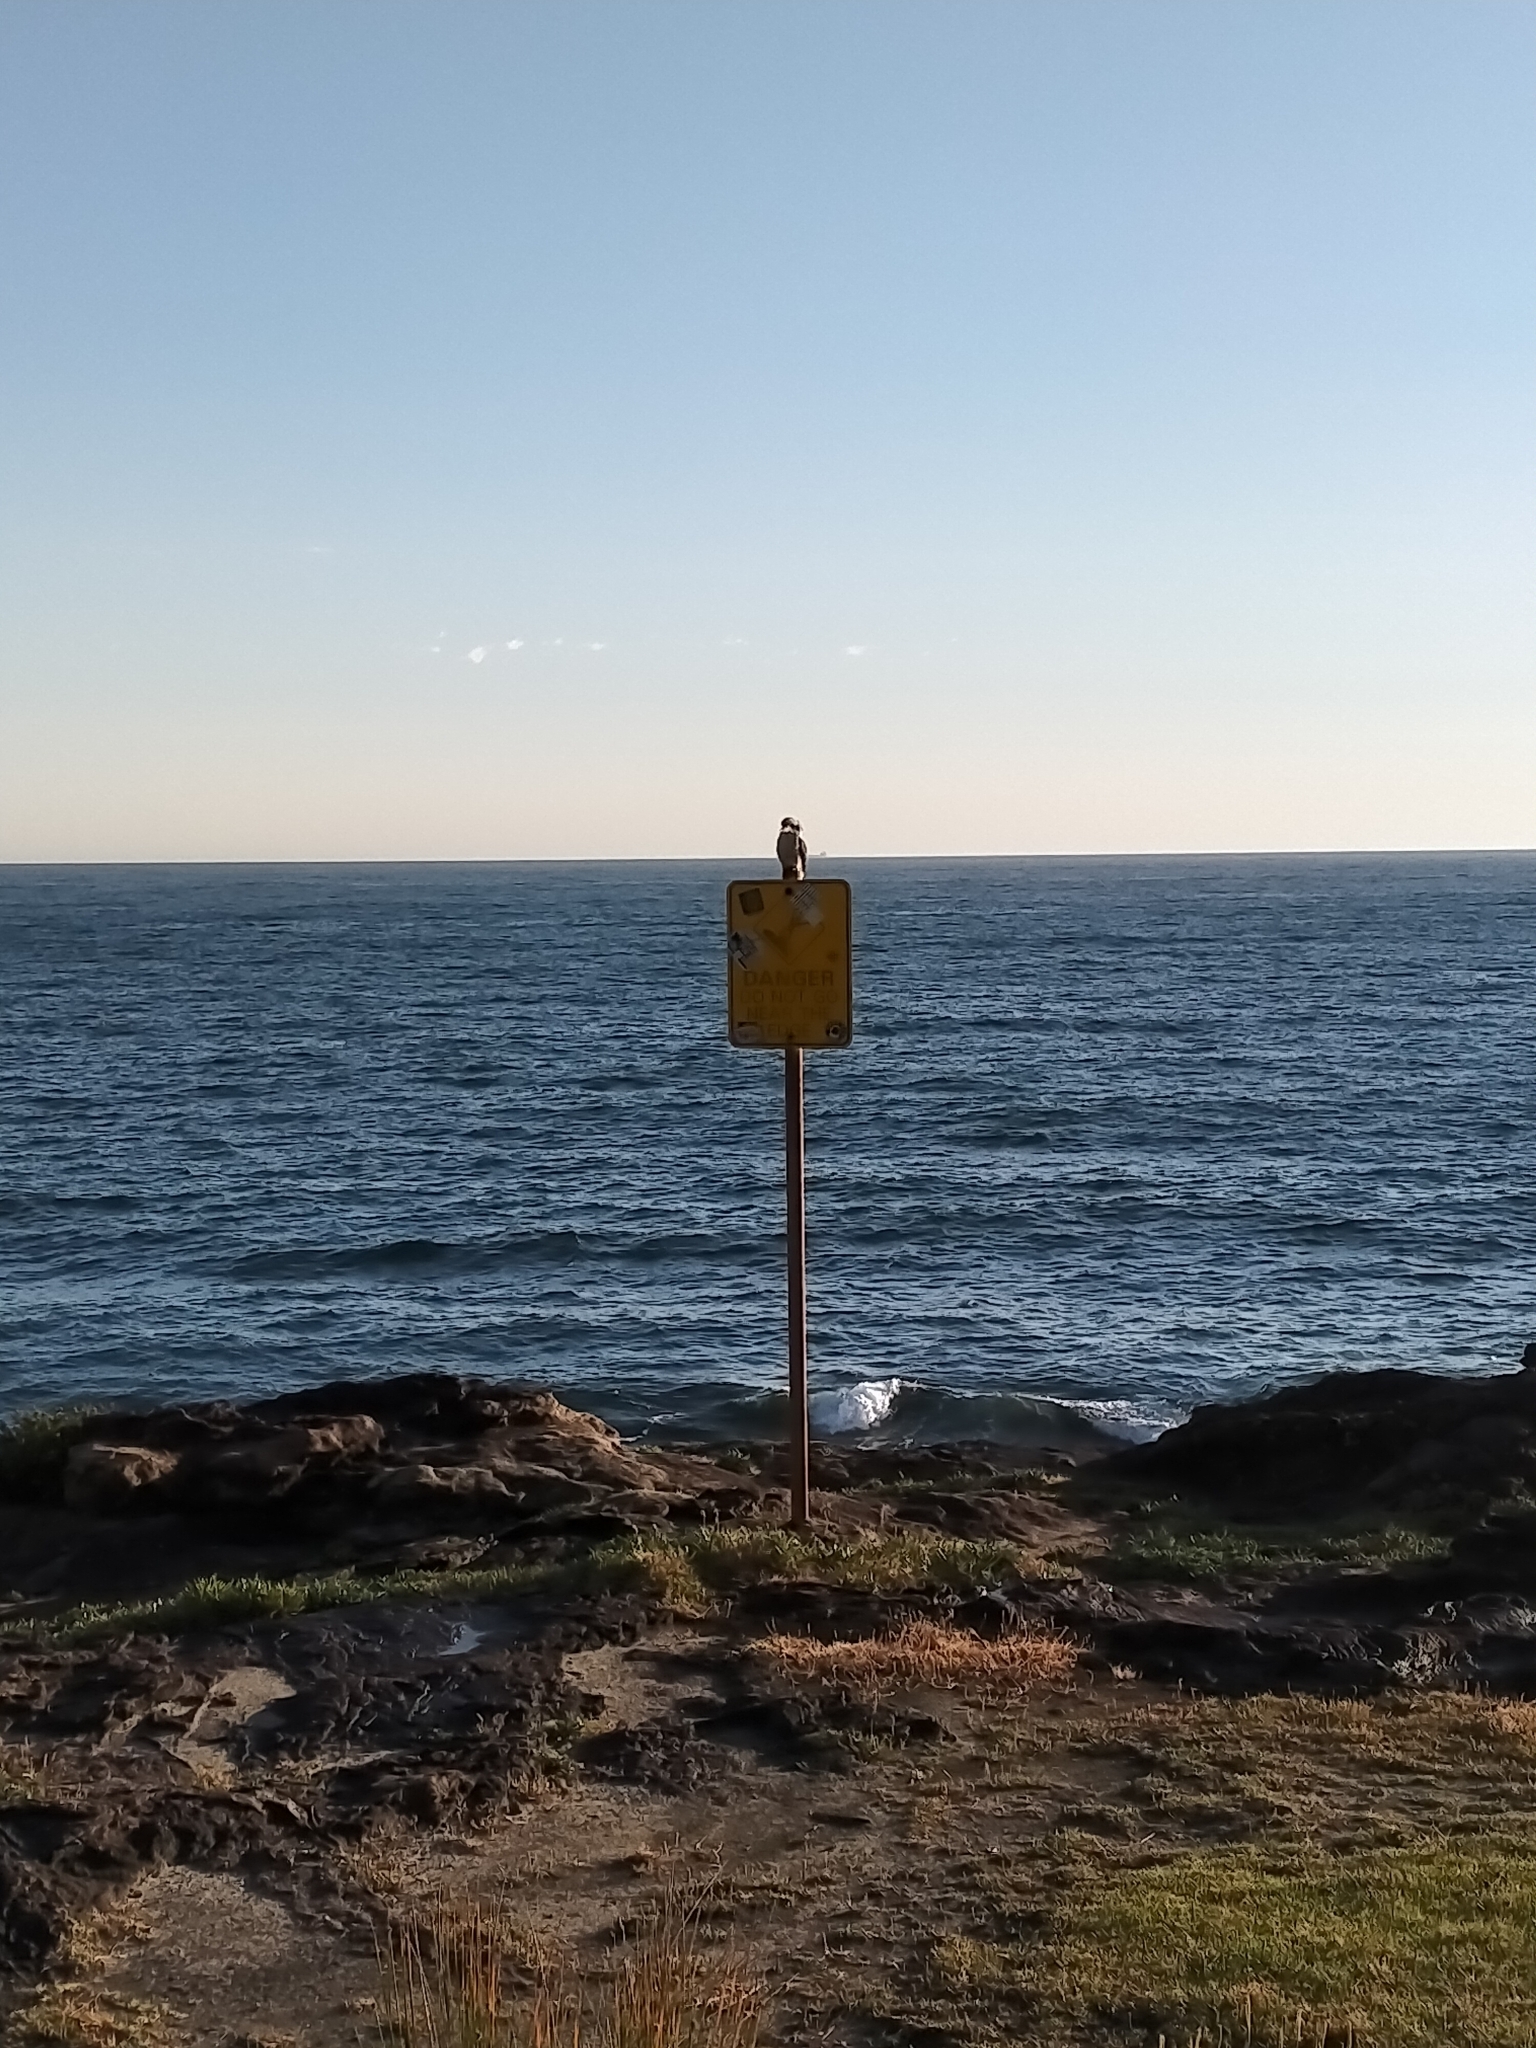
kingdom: Animalia
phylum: Chordata
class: Aves
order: Coraciiformes
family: Alcedinidae
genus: Dacelo
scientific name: Dacelo novaeguineae
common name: Laughing kookaburra
